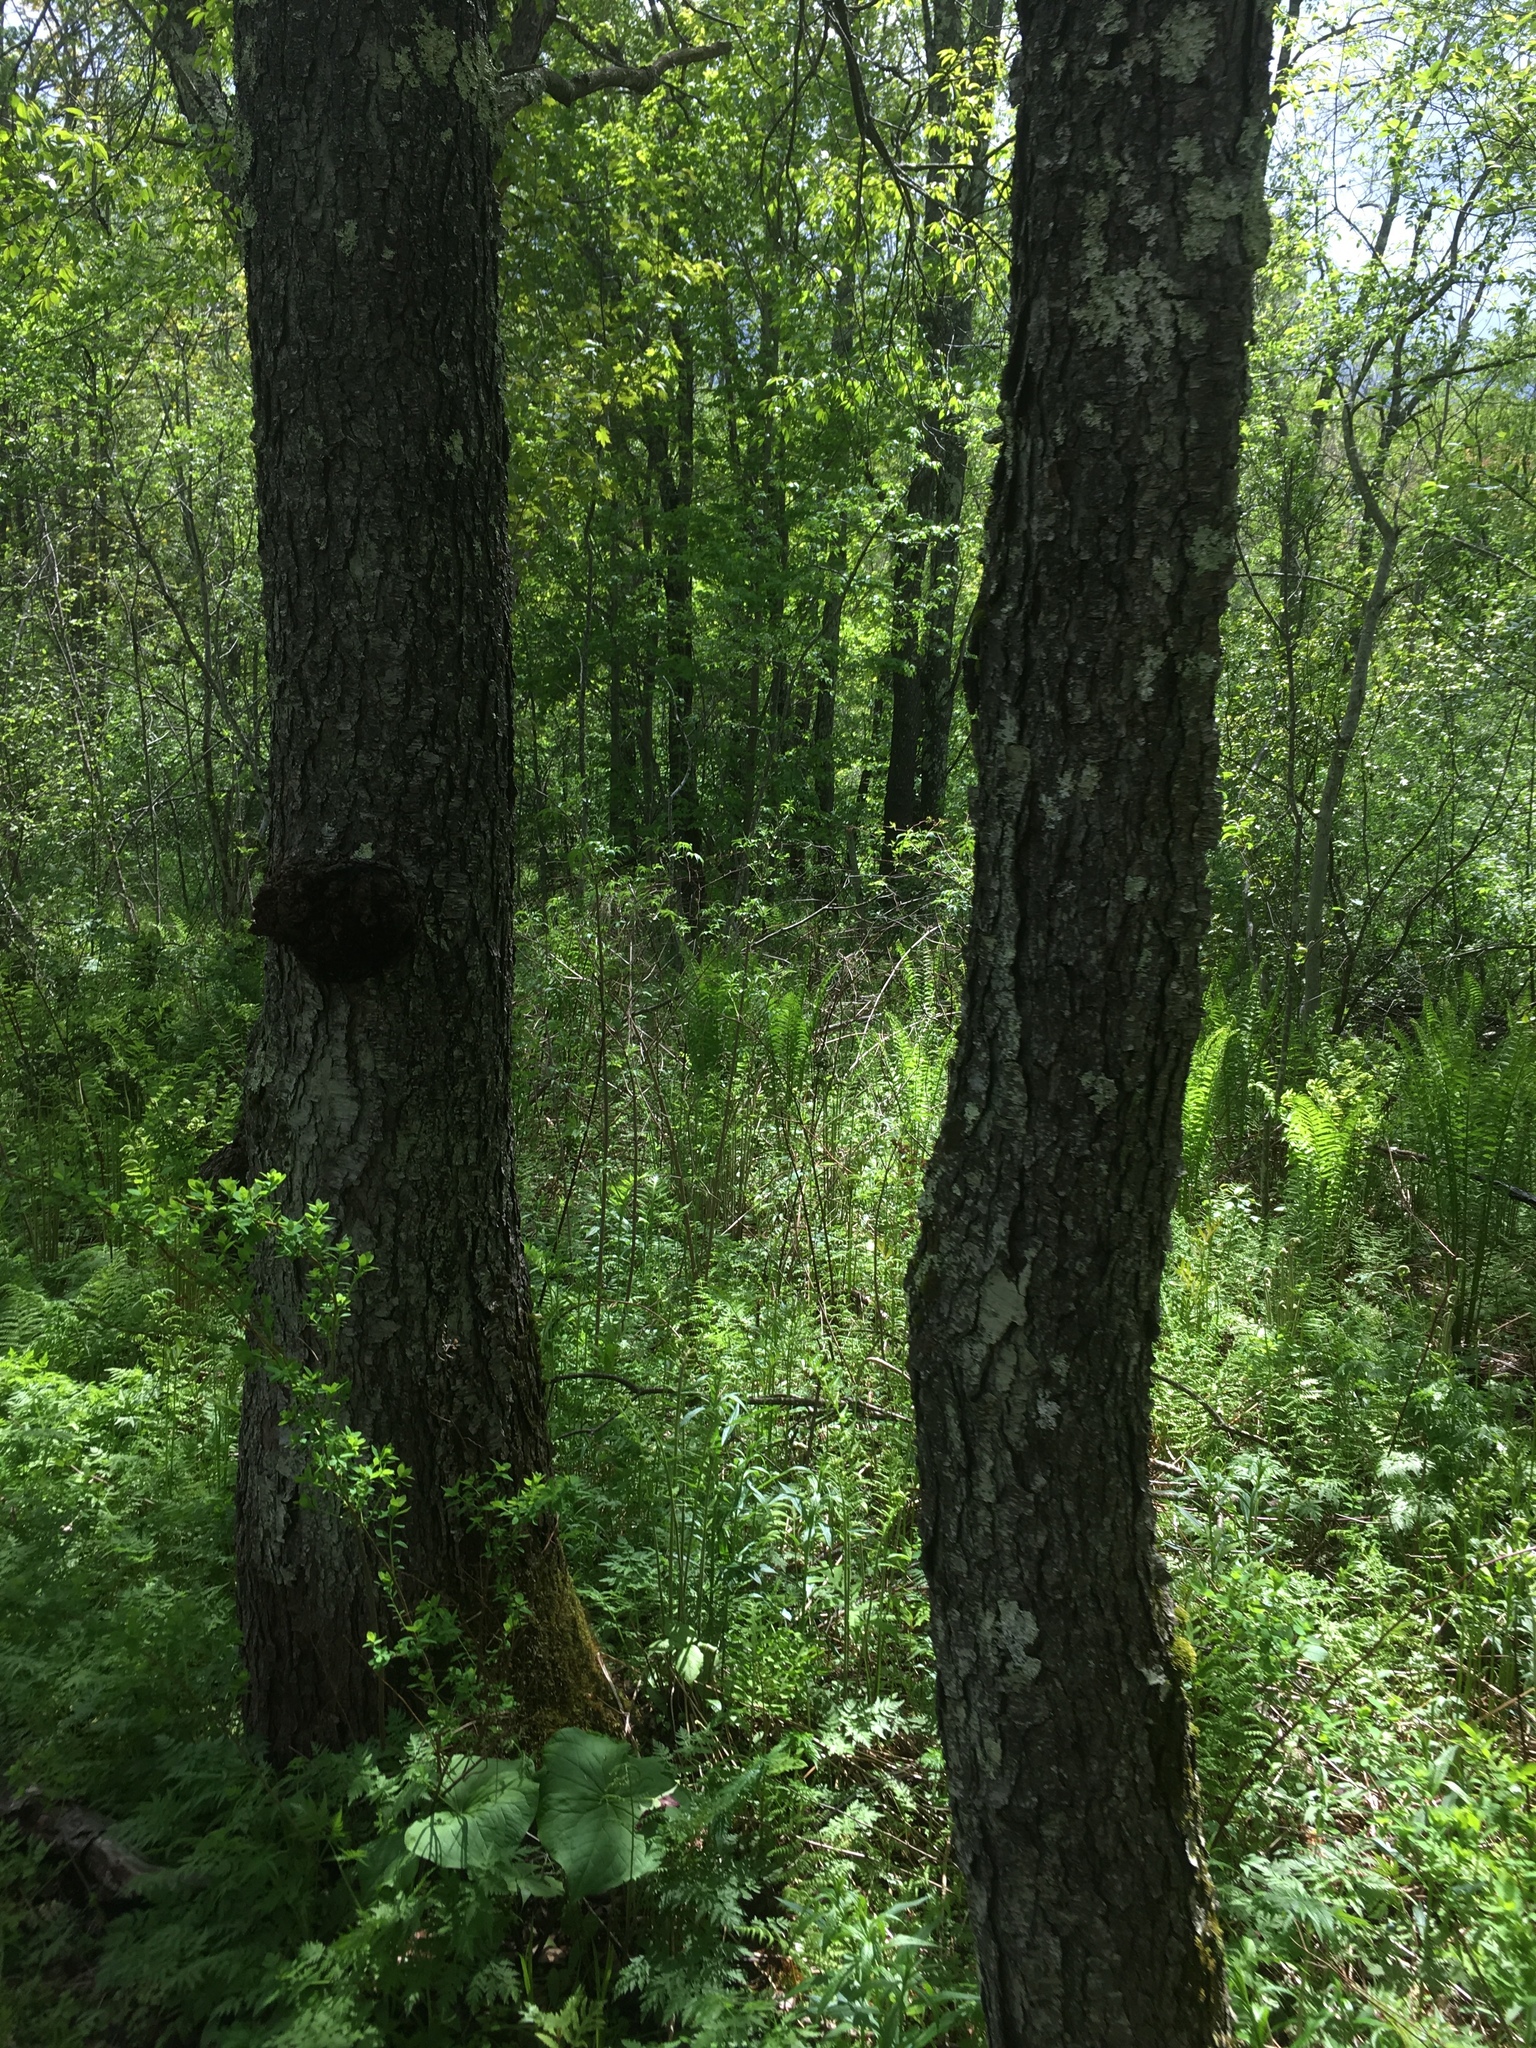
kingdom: Plantae
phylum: Tracheophyta
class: Magnoliopsida
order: Rosales
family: Rosaceae
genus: Prunus
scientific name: Prunus serotina
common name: Black cherry
